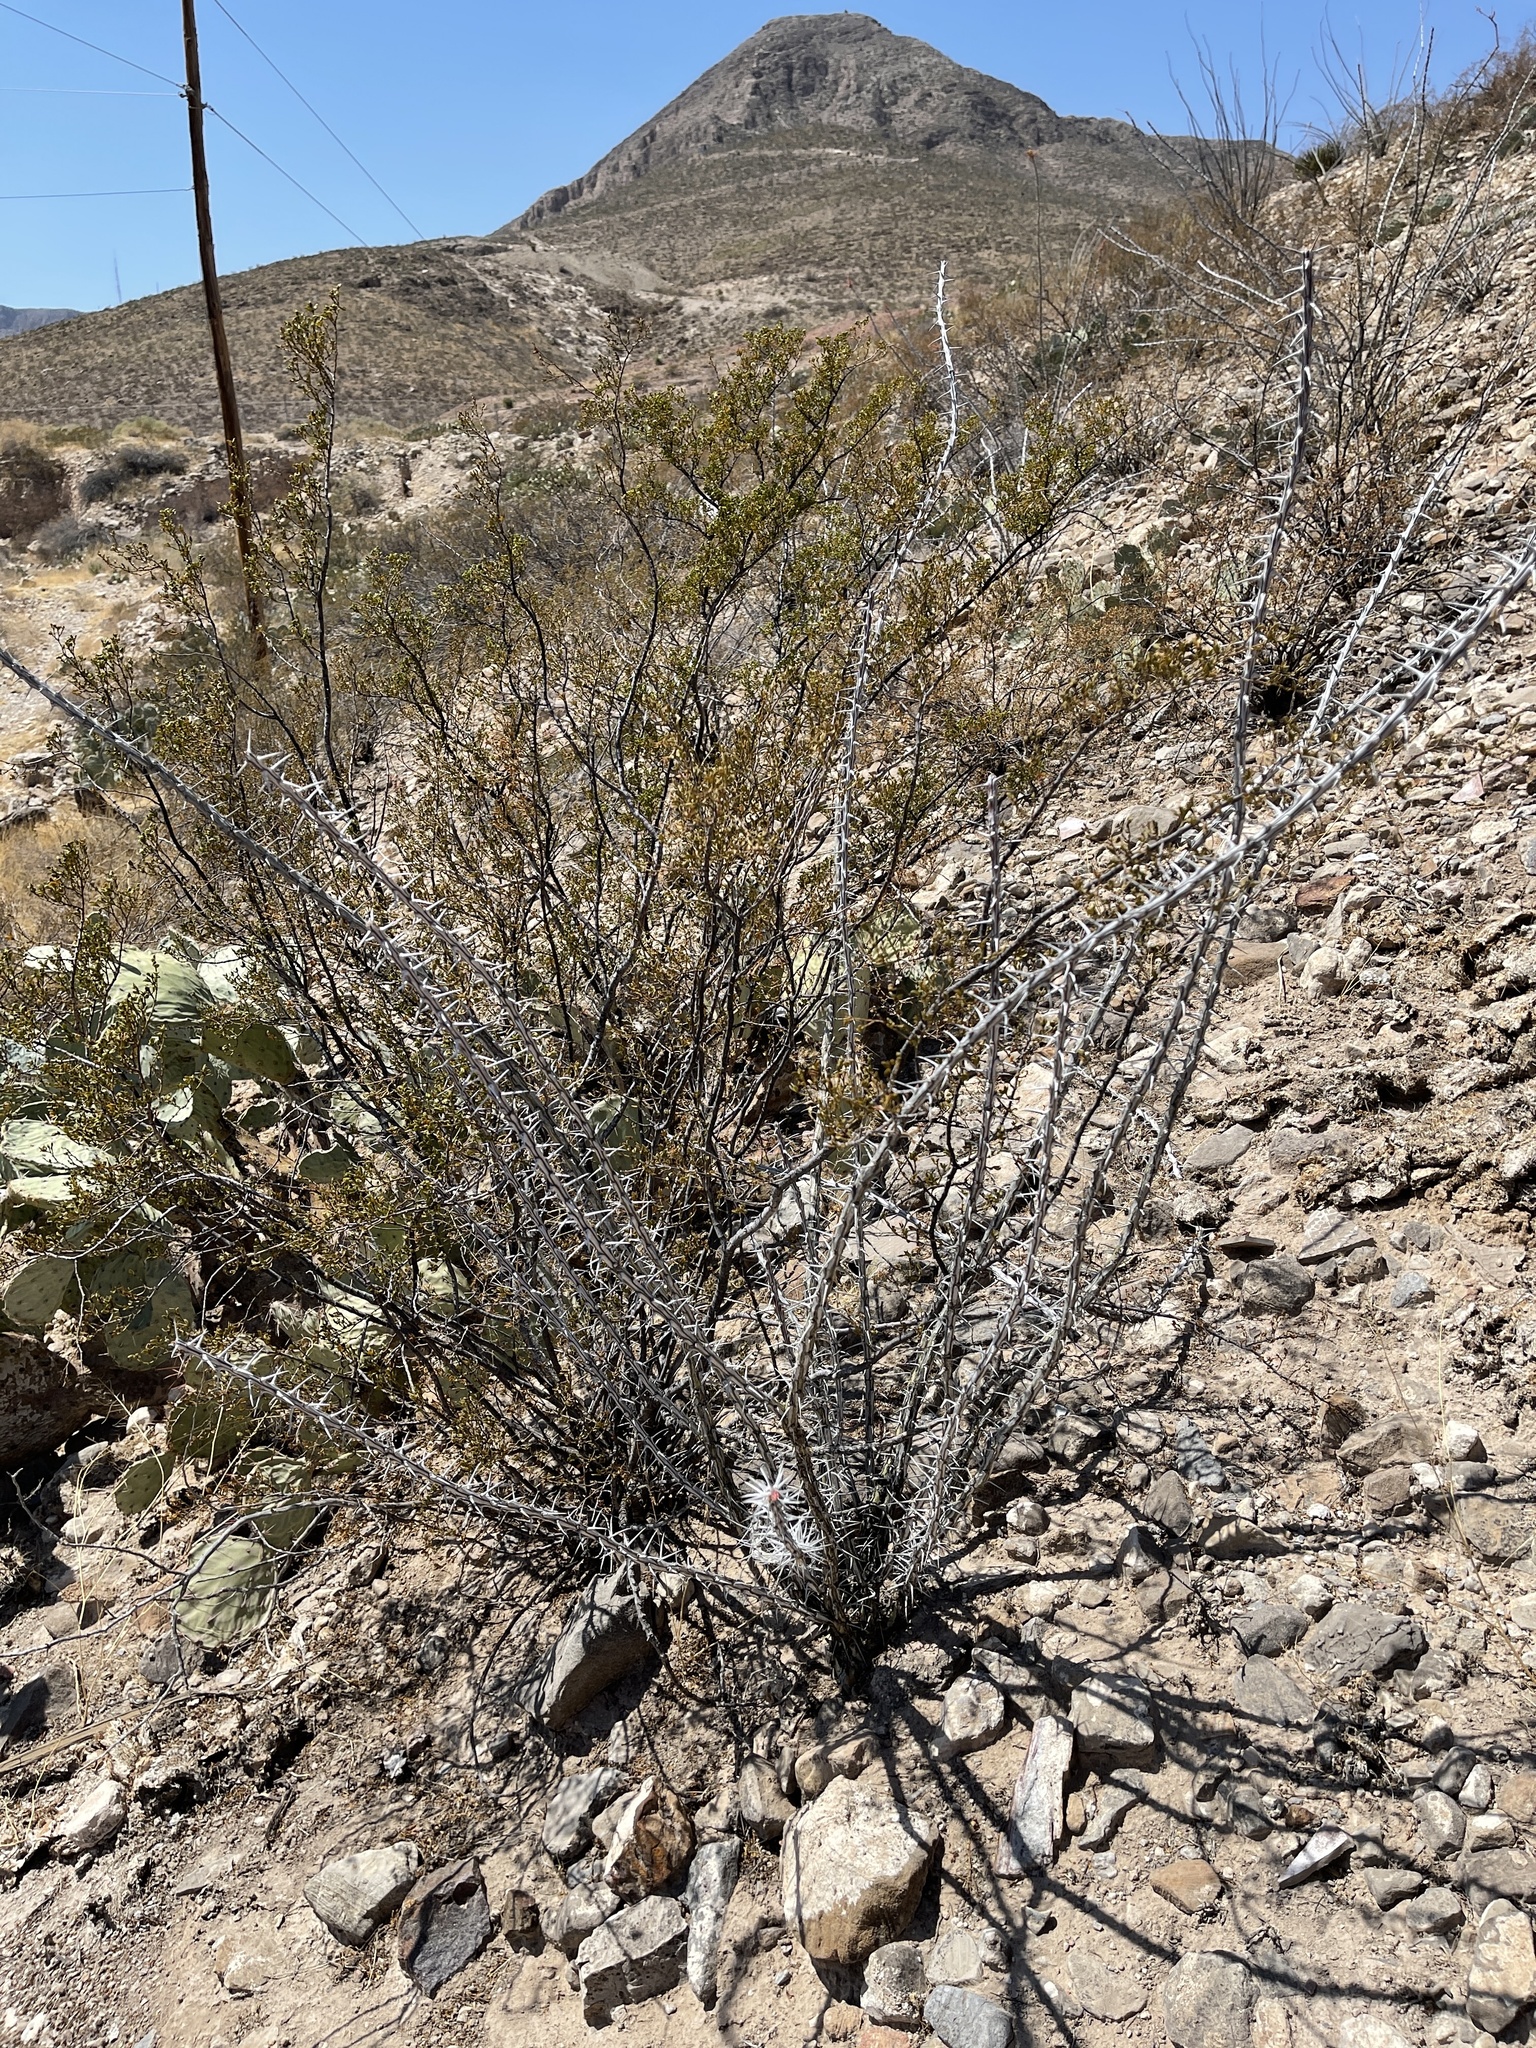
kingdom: Plantae
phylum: Tracheophyta
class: Magnoliopsida
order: Ericales
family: Fouquieriaceae
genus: Fouquieria
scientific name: Fouquieria splendens
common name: Vine-cactus
